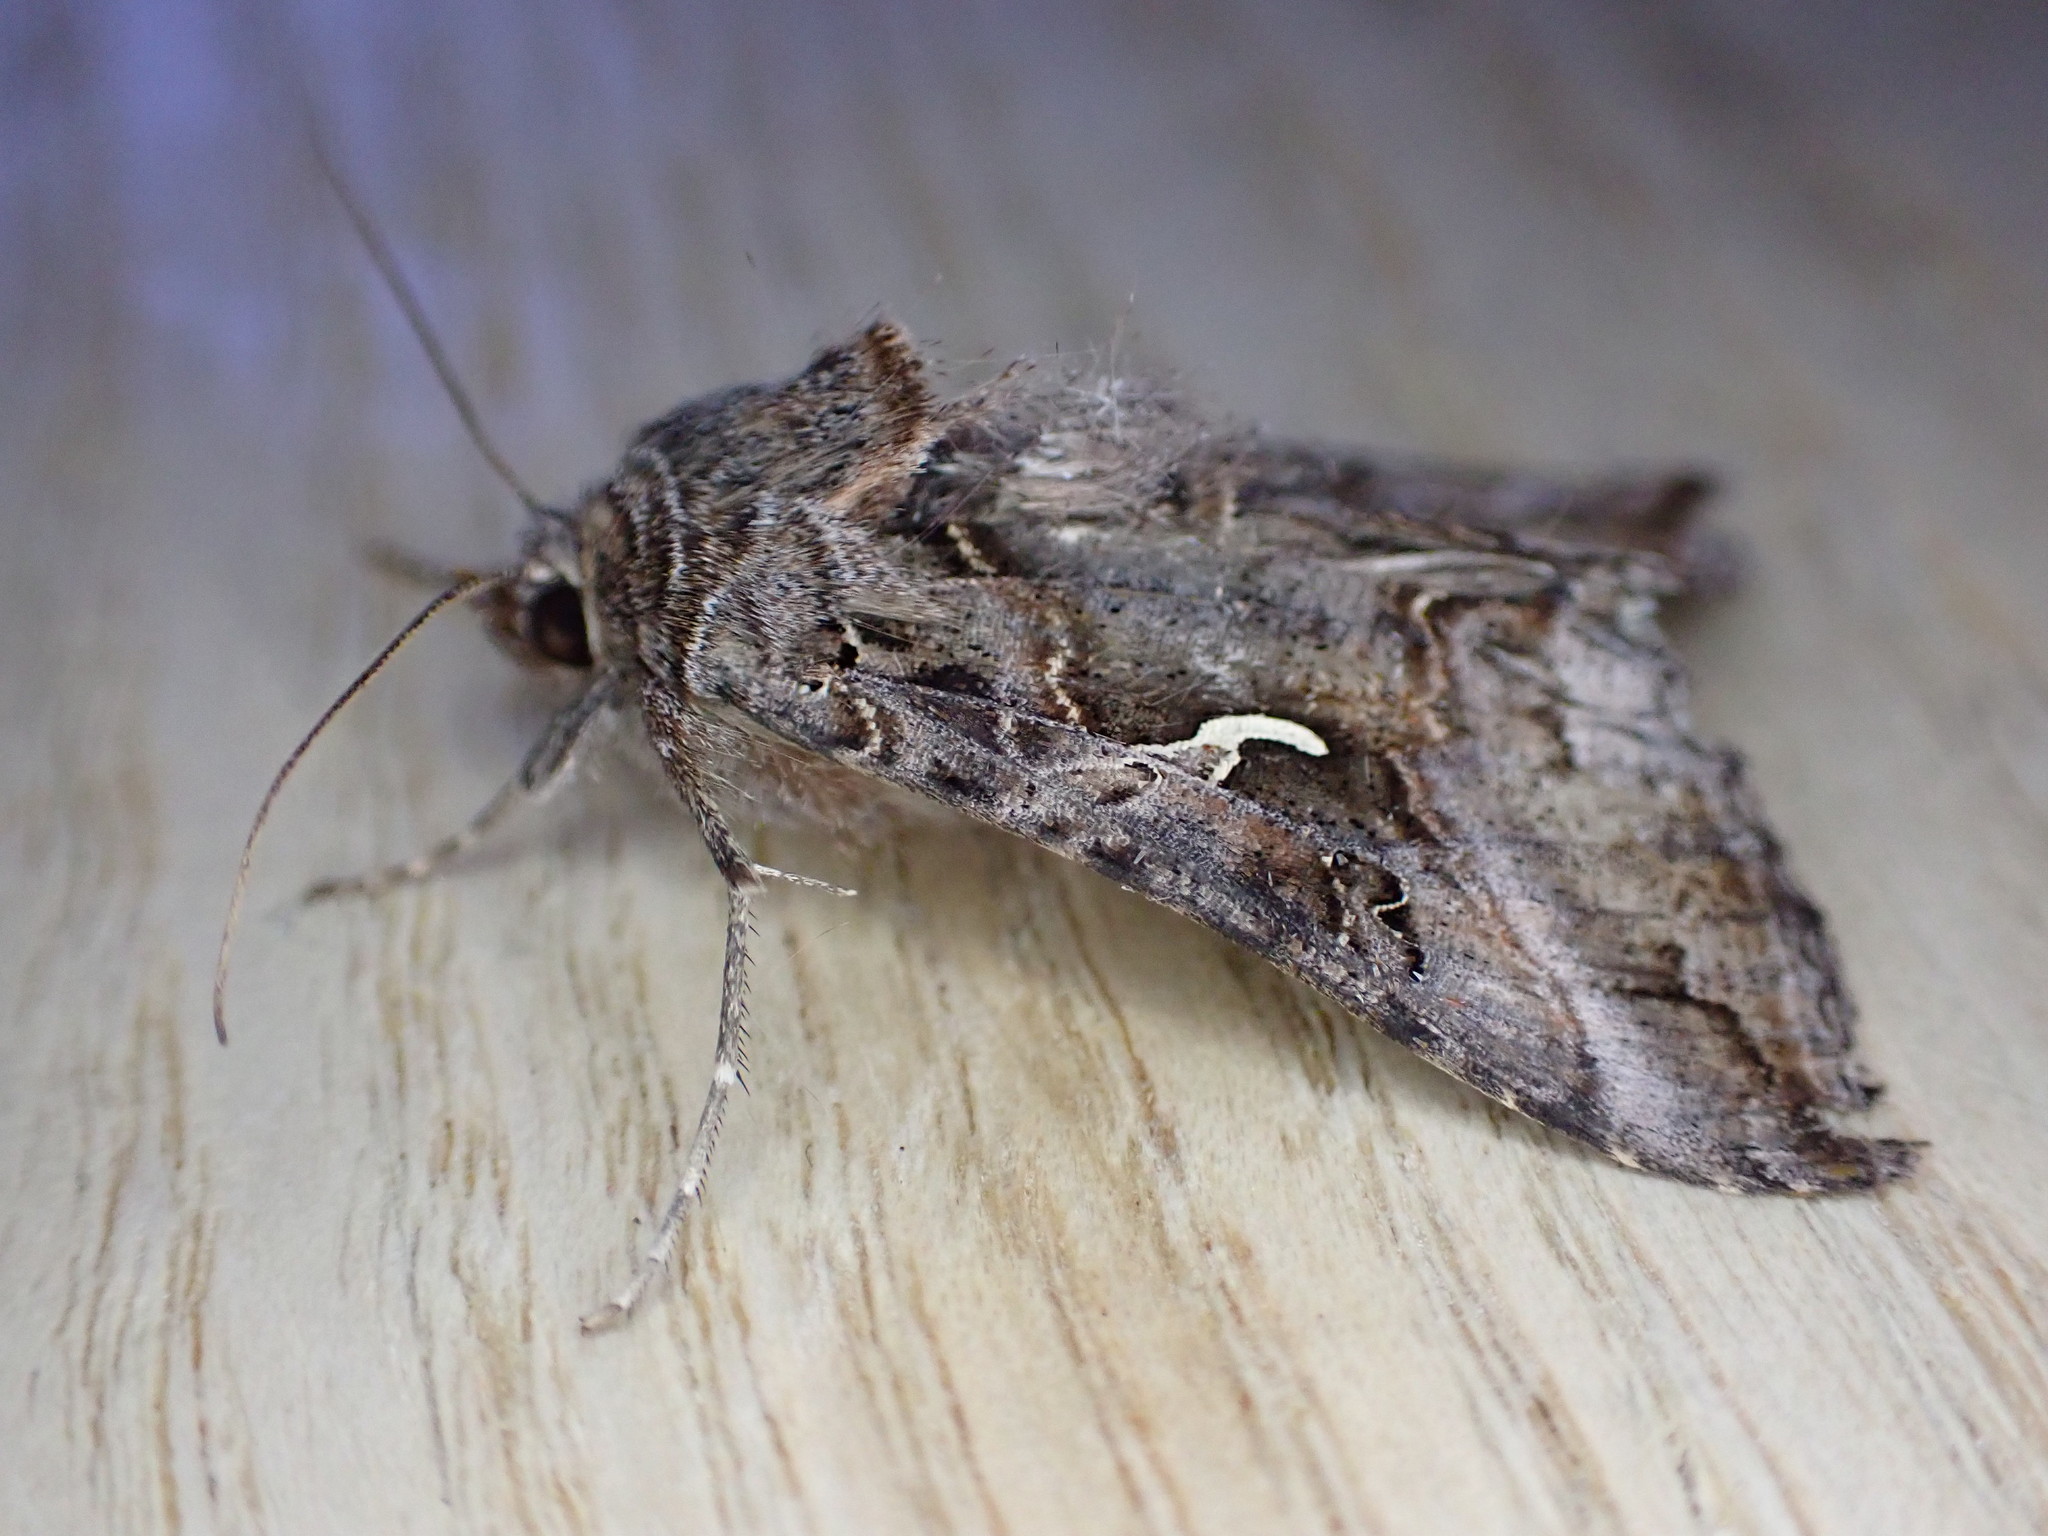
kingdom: Animalia
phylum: Arthropoda
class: Insecta
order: Lepidoptera
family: Noctuidae
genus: Autographa
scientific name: Autographa gamma
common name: Silver y
